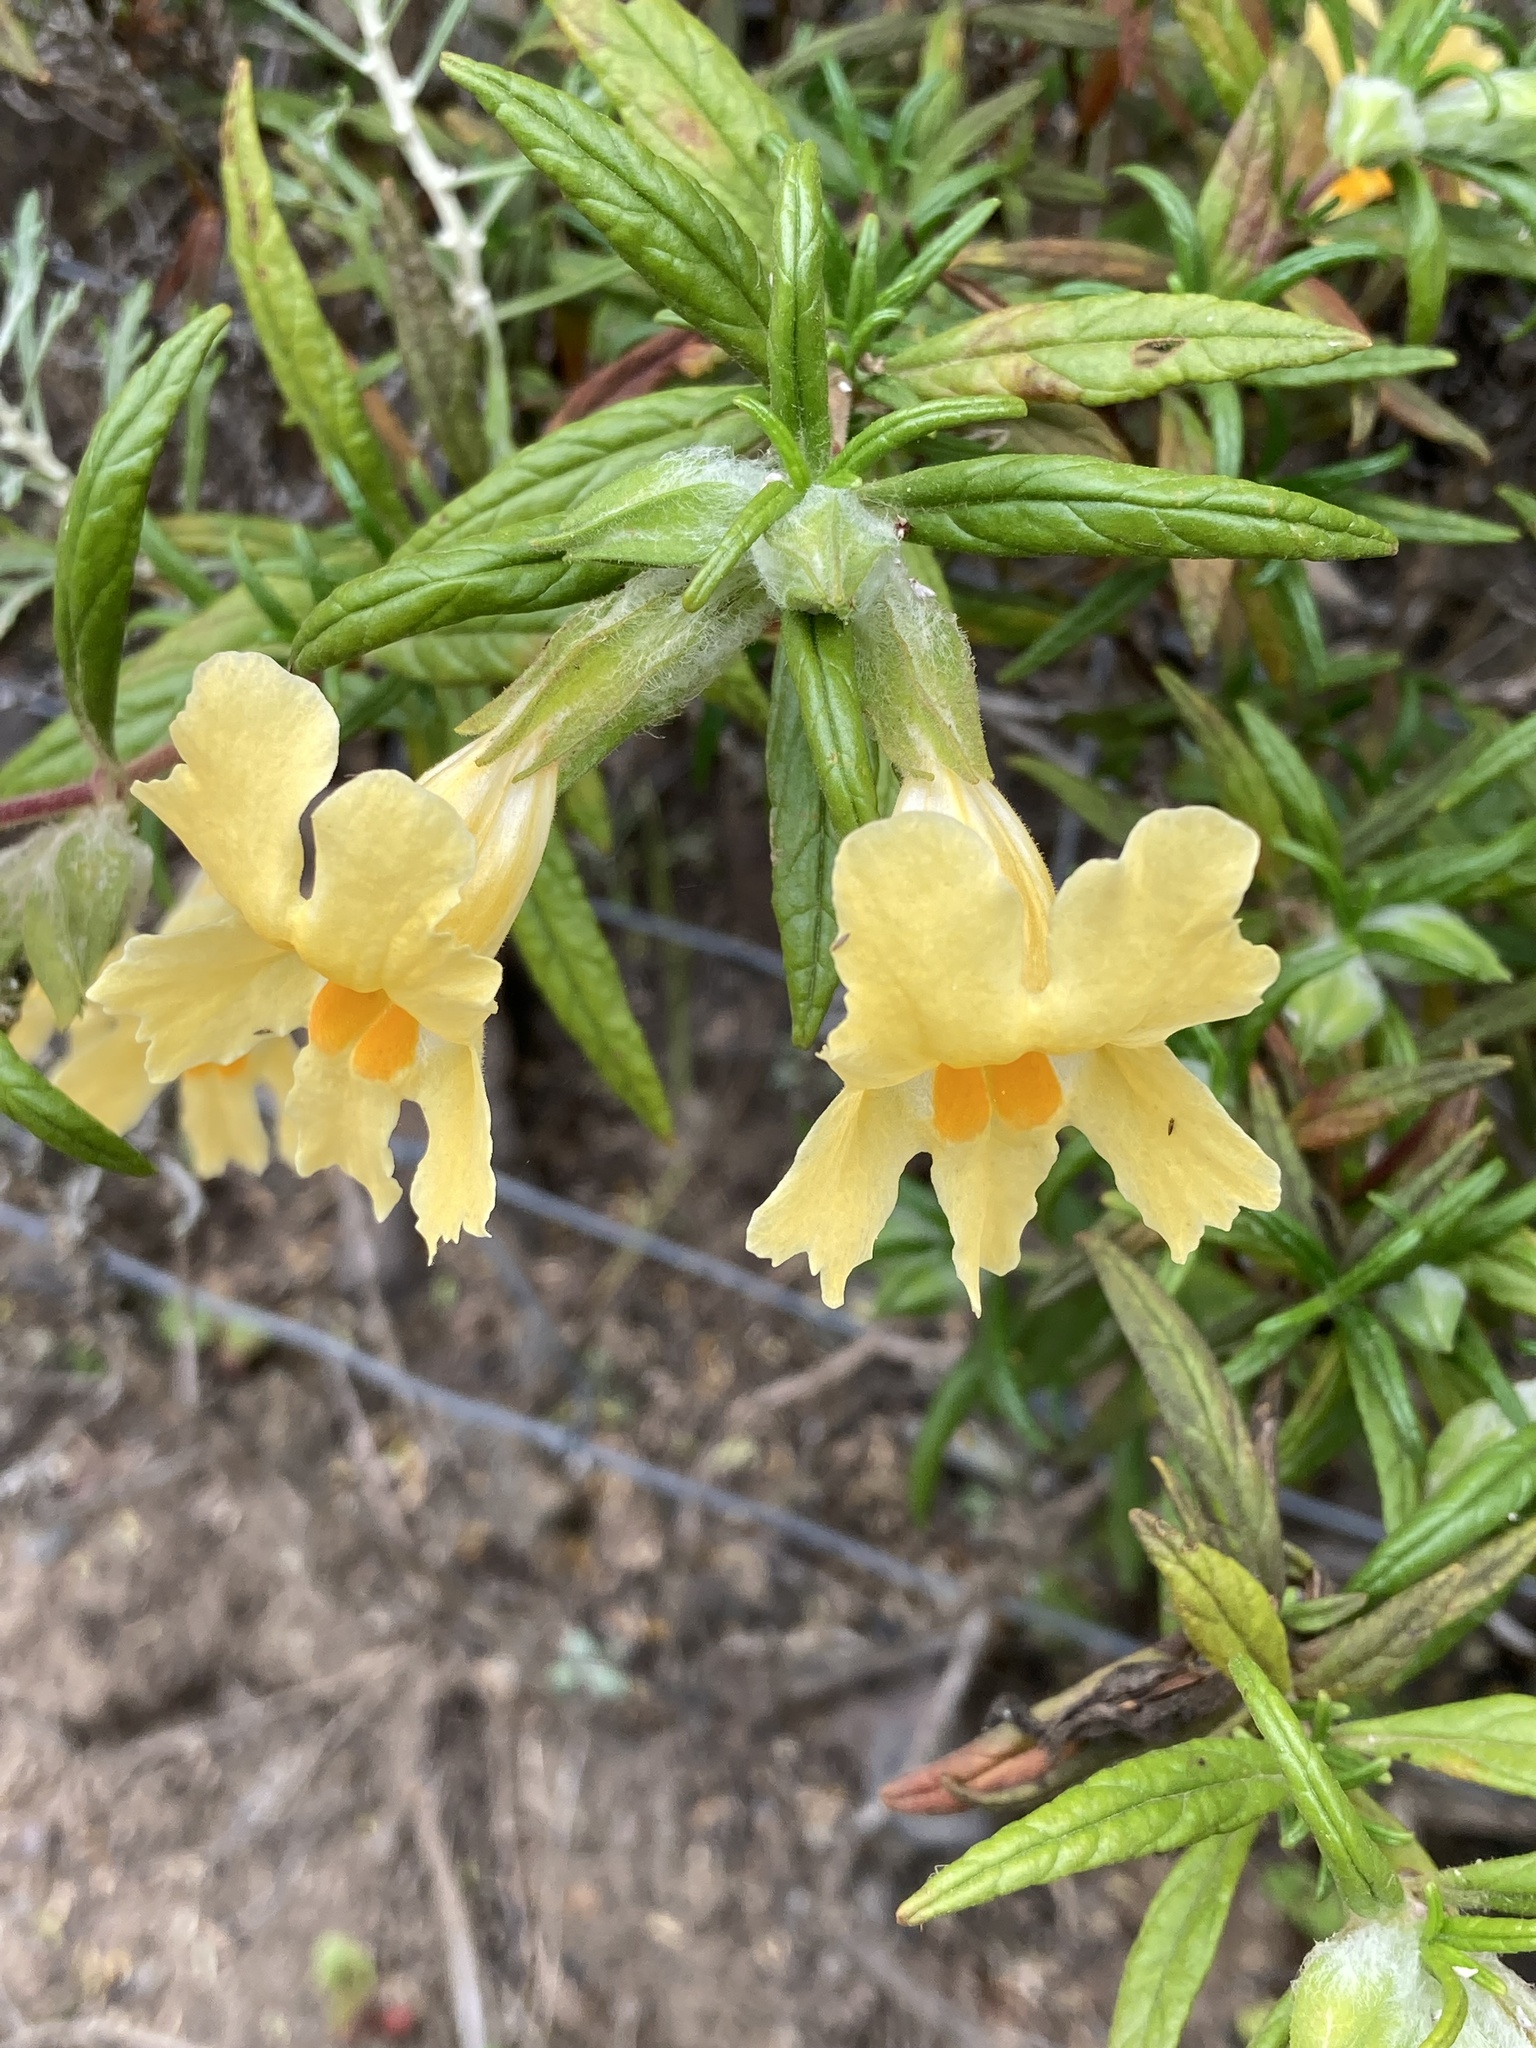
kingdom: Plantae
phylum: Tracheophyta
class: Magnoliopsida
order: Lamiales
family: Phrymaceae
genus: Diplacus
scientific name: Diplacus longiflorus
